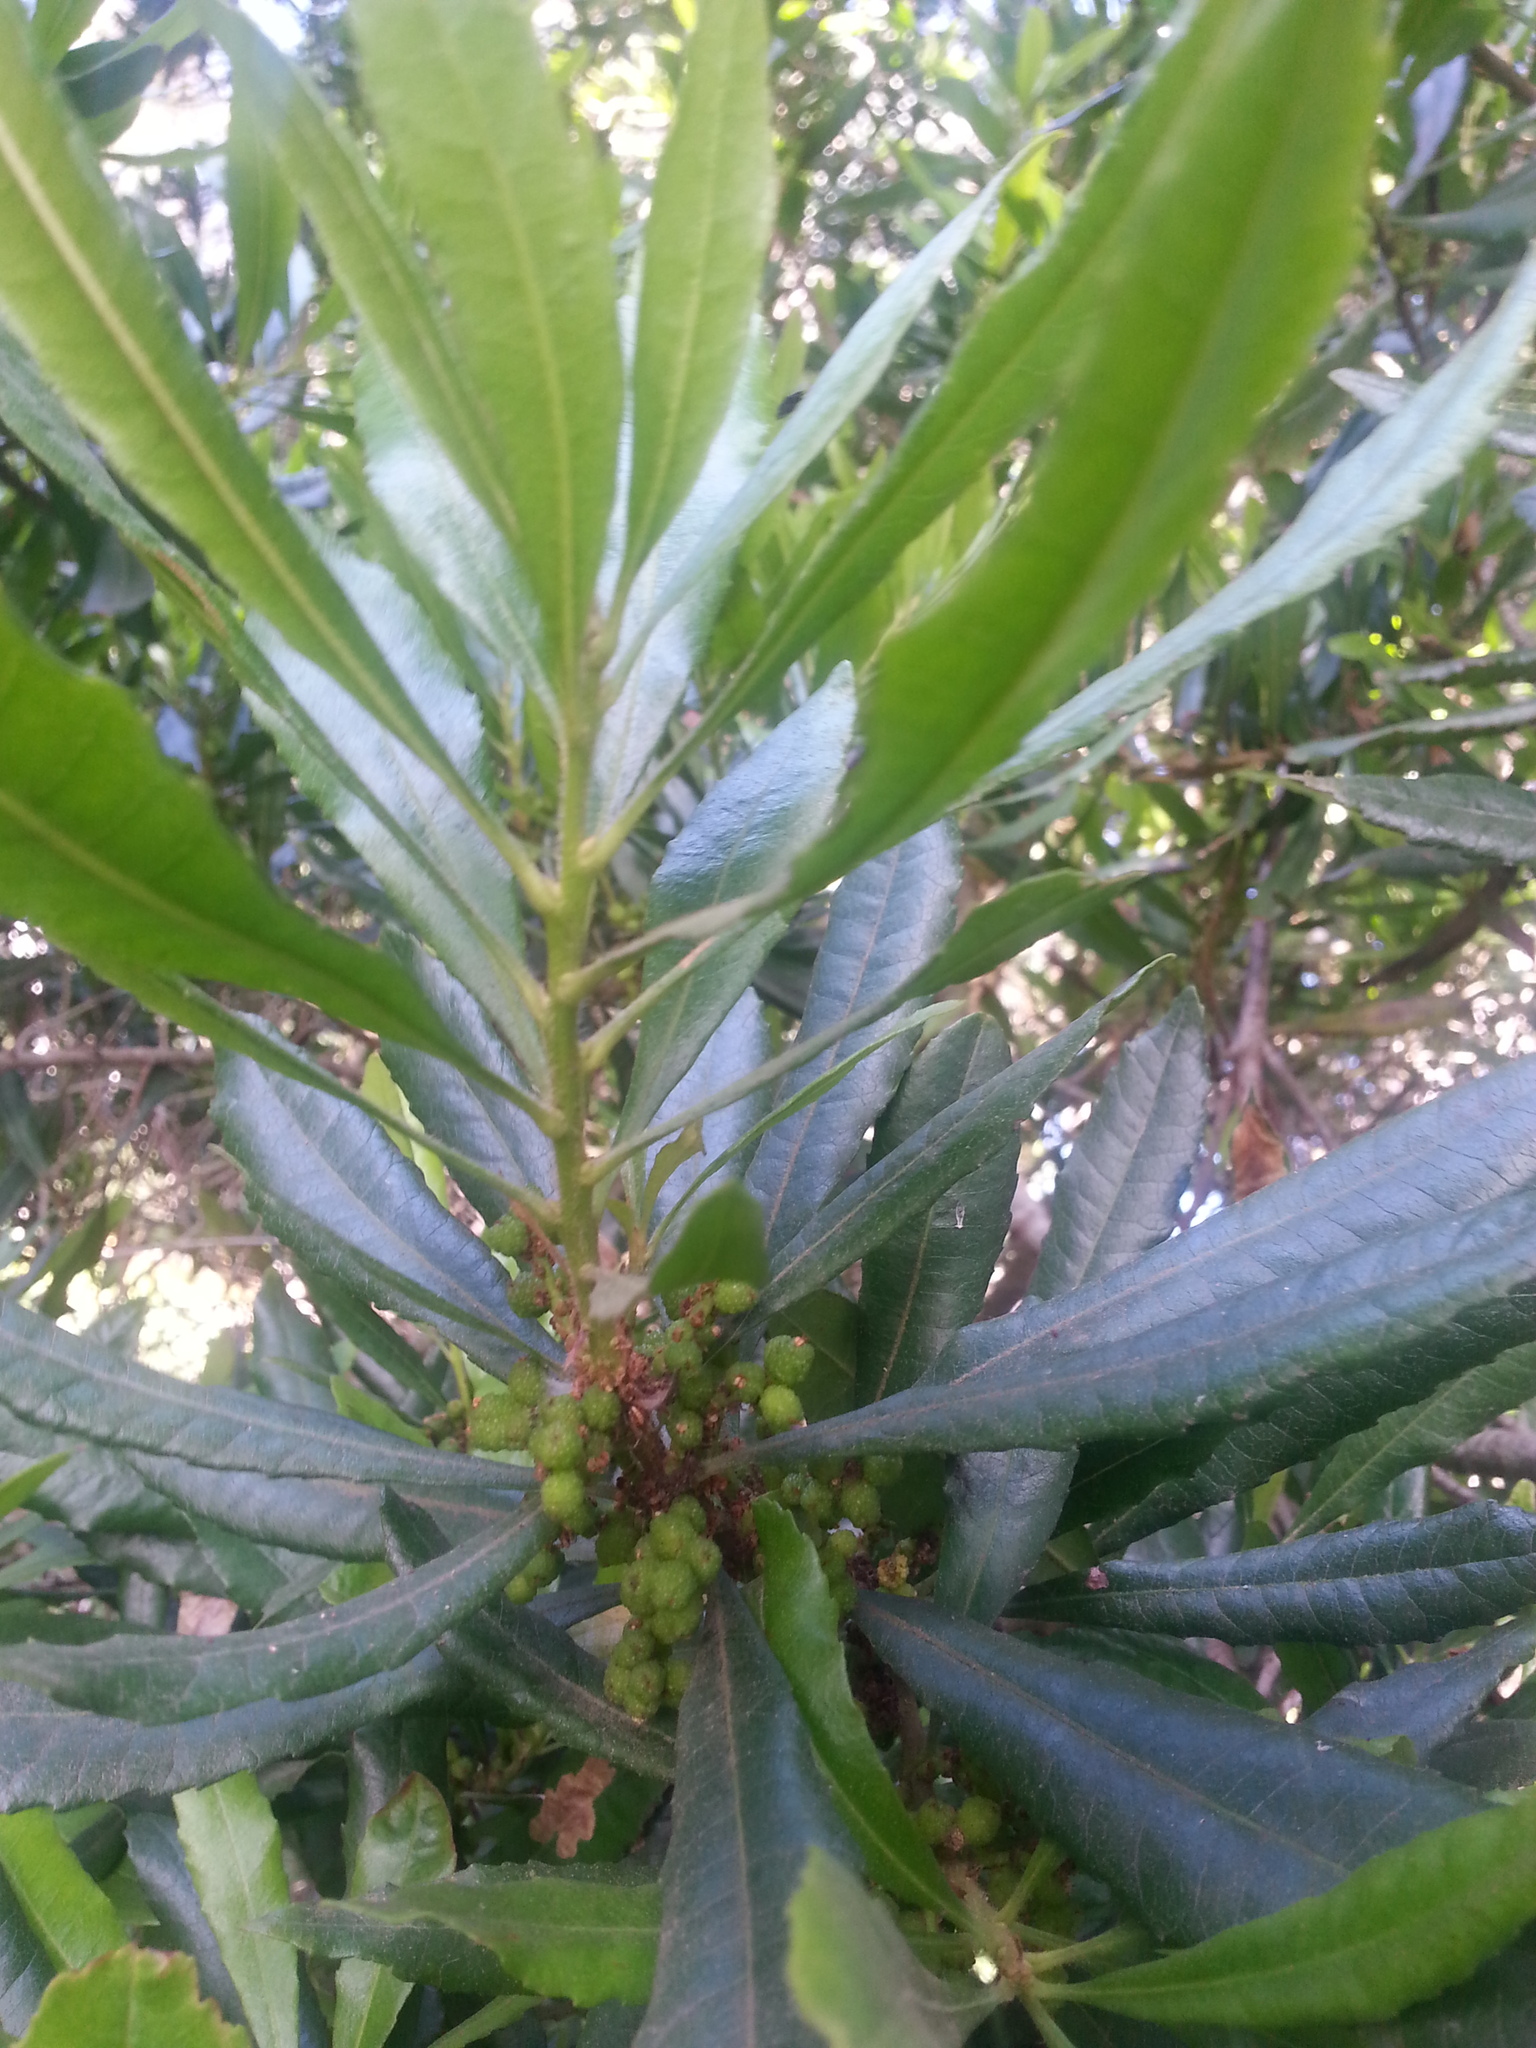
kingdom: Plantae
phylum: Tracheophyta
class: Magnoliopsida
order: Fagales
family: Myricaceae
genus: Morella
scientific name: Morella californica
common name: California wax-myrtle
